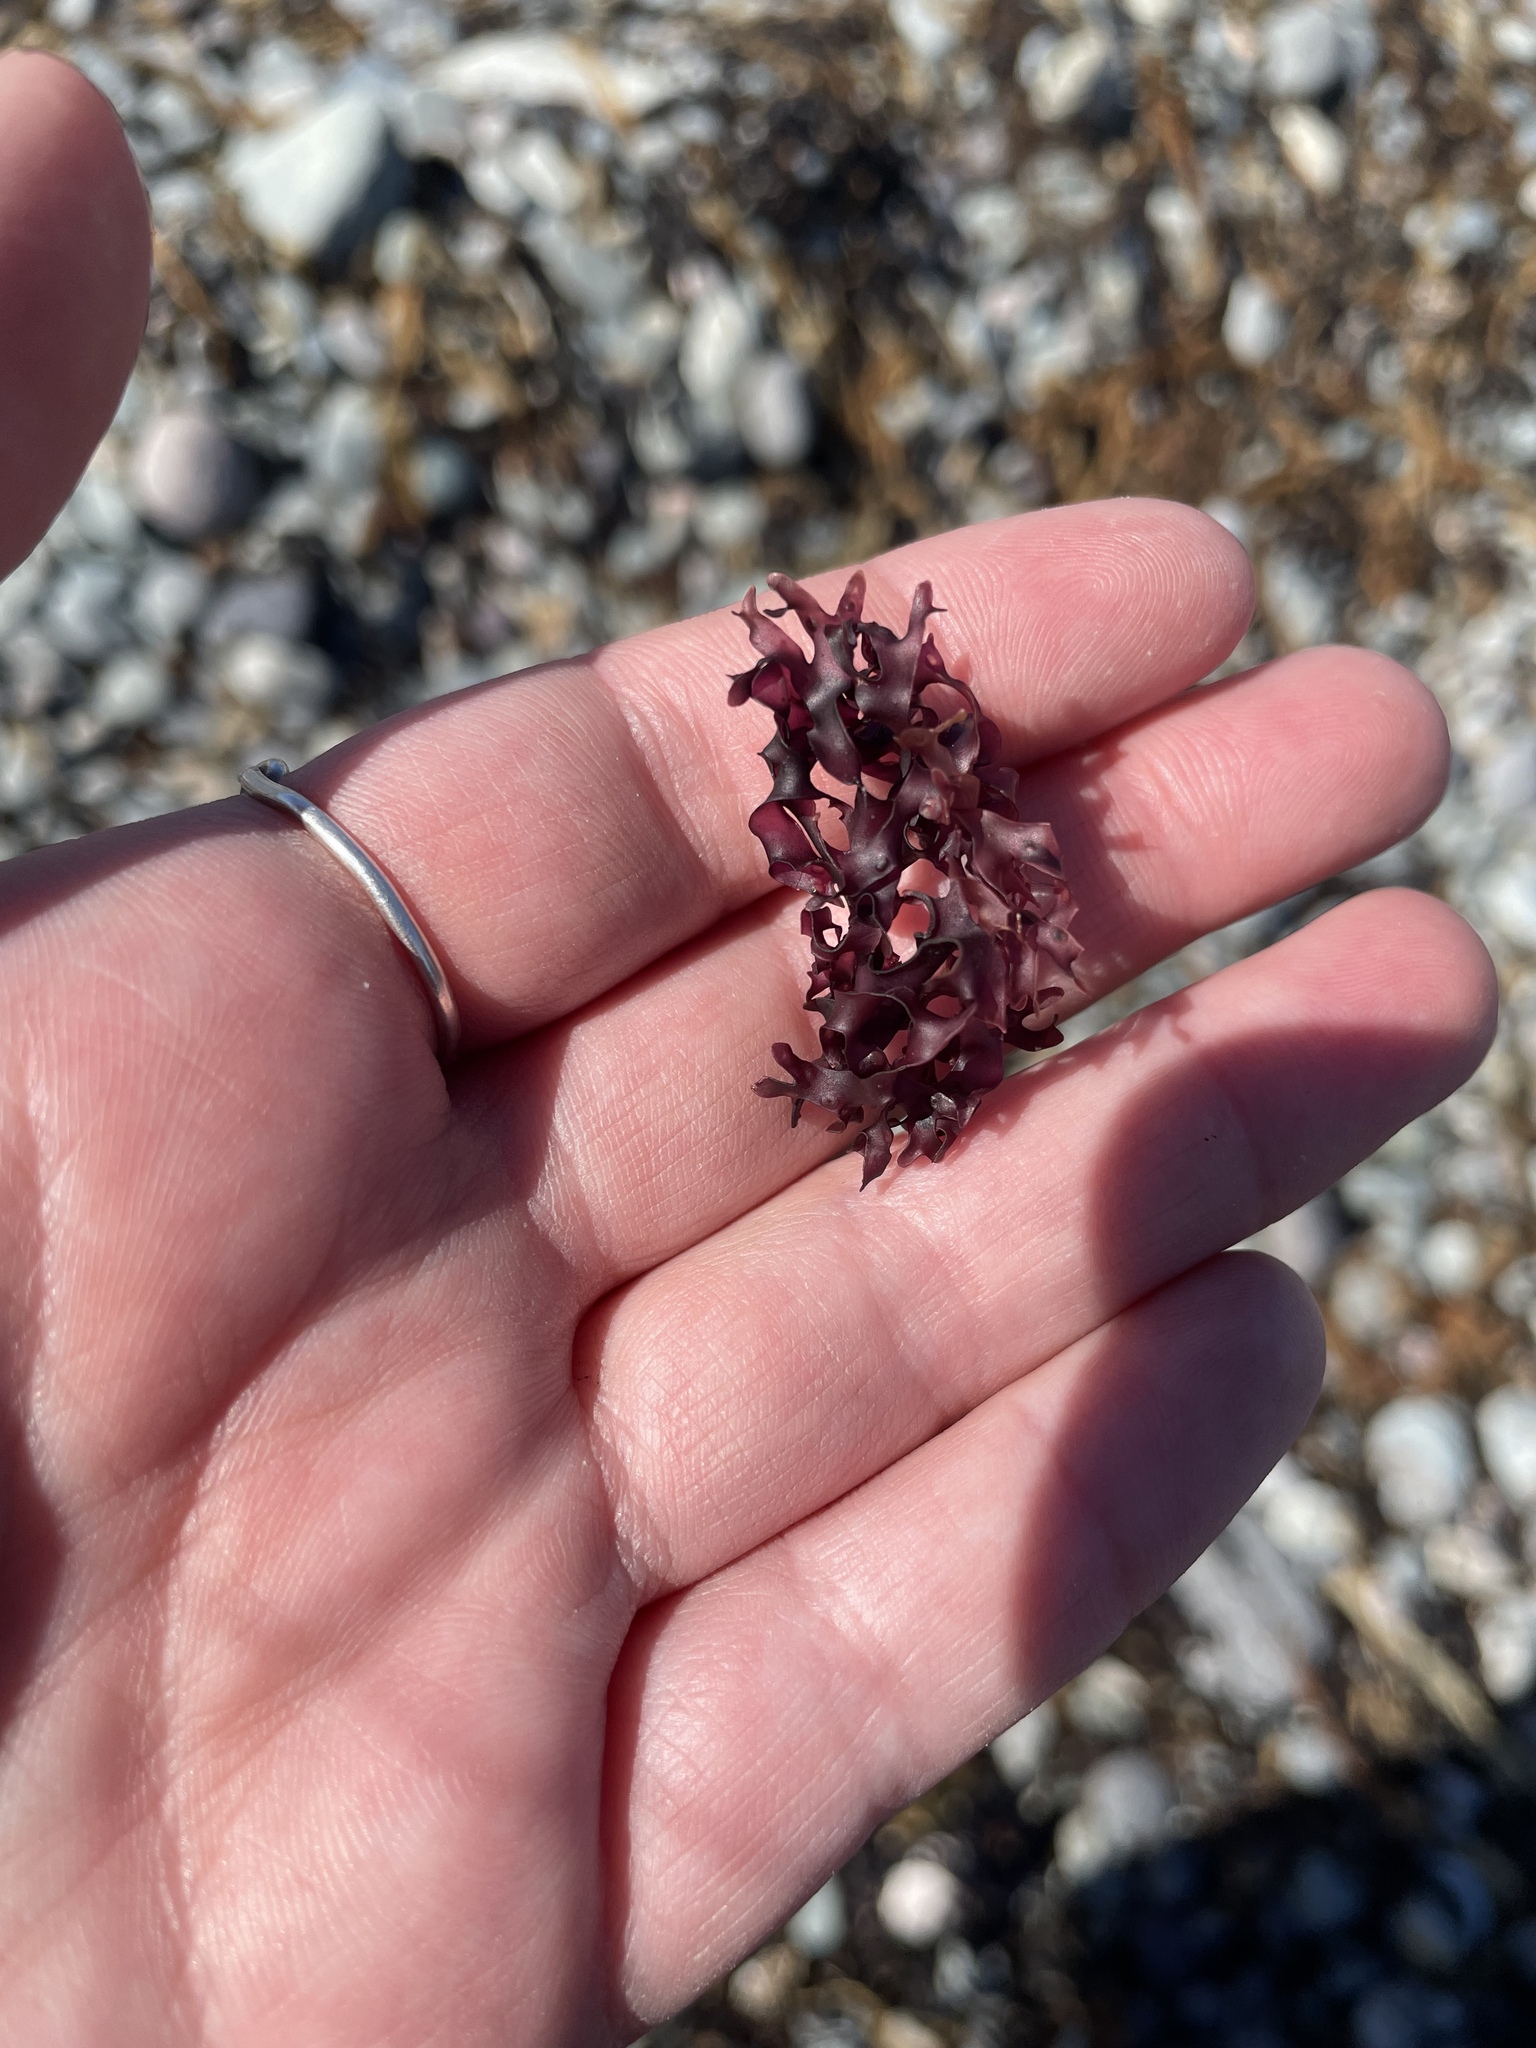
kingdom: Plantae
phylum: Rhodophyta
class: Florideophyceae
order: Gigartinales
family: Gigartinaceae
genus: Chondrus
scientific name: Chondrus crispus
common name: Carrageen
